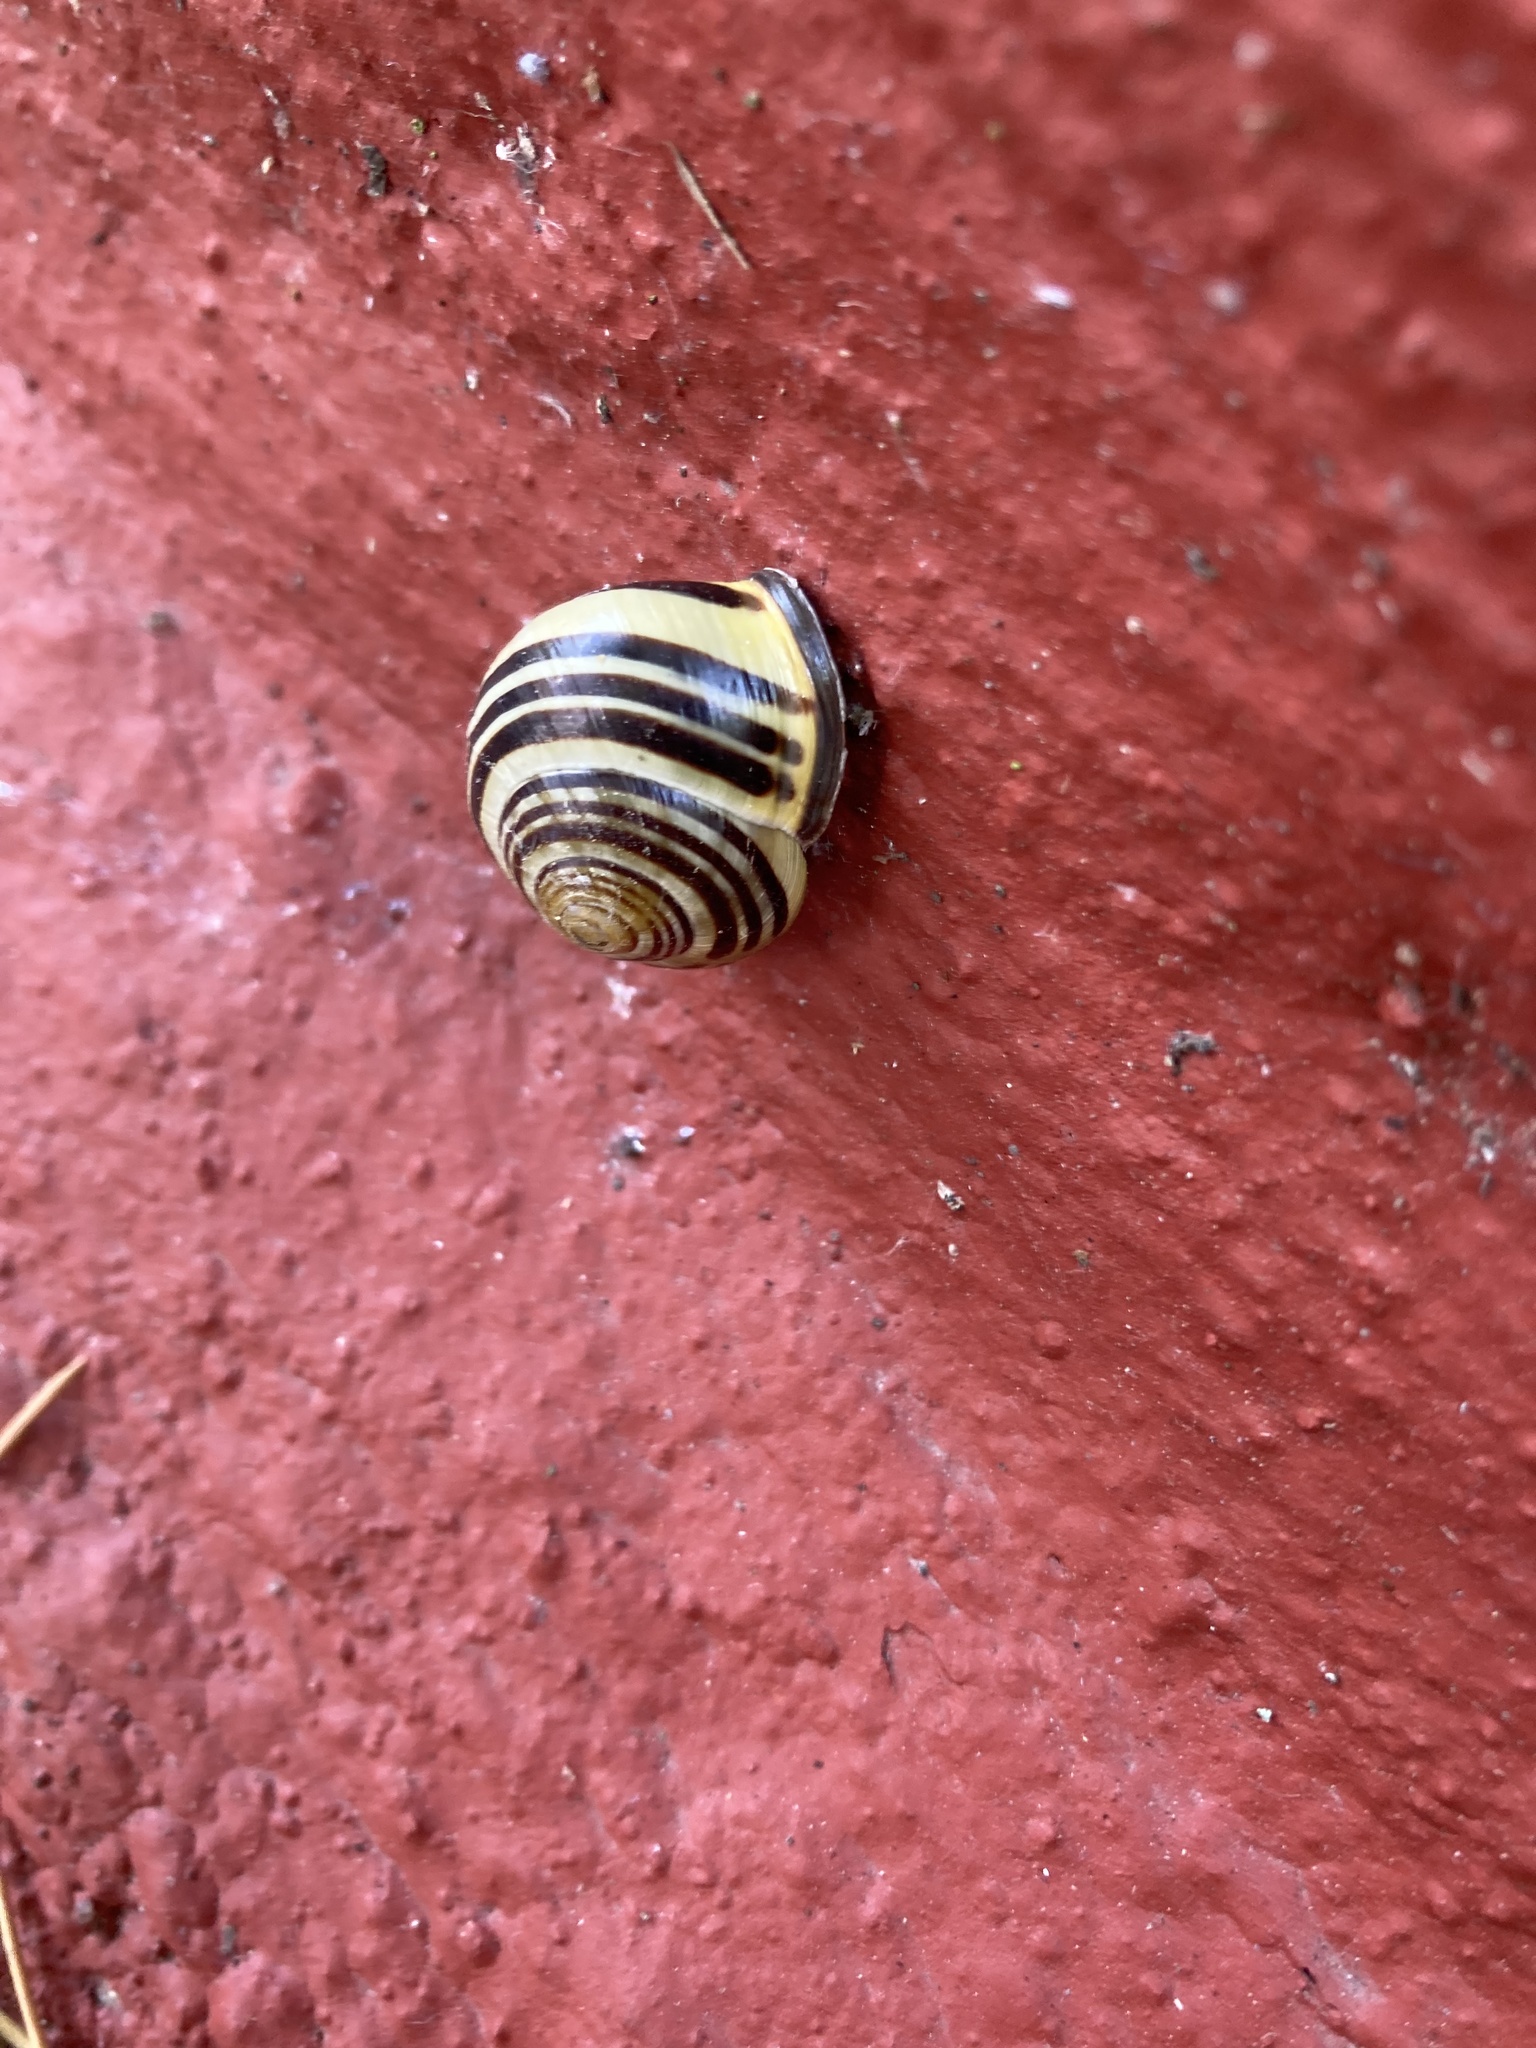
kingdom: Animalia
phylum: Mollusca
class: Gastropoda
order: Stylommatophora
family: Helicidae
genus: Cepaea
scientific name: Cepaea nemoralis
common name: Grovesnail
